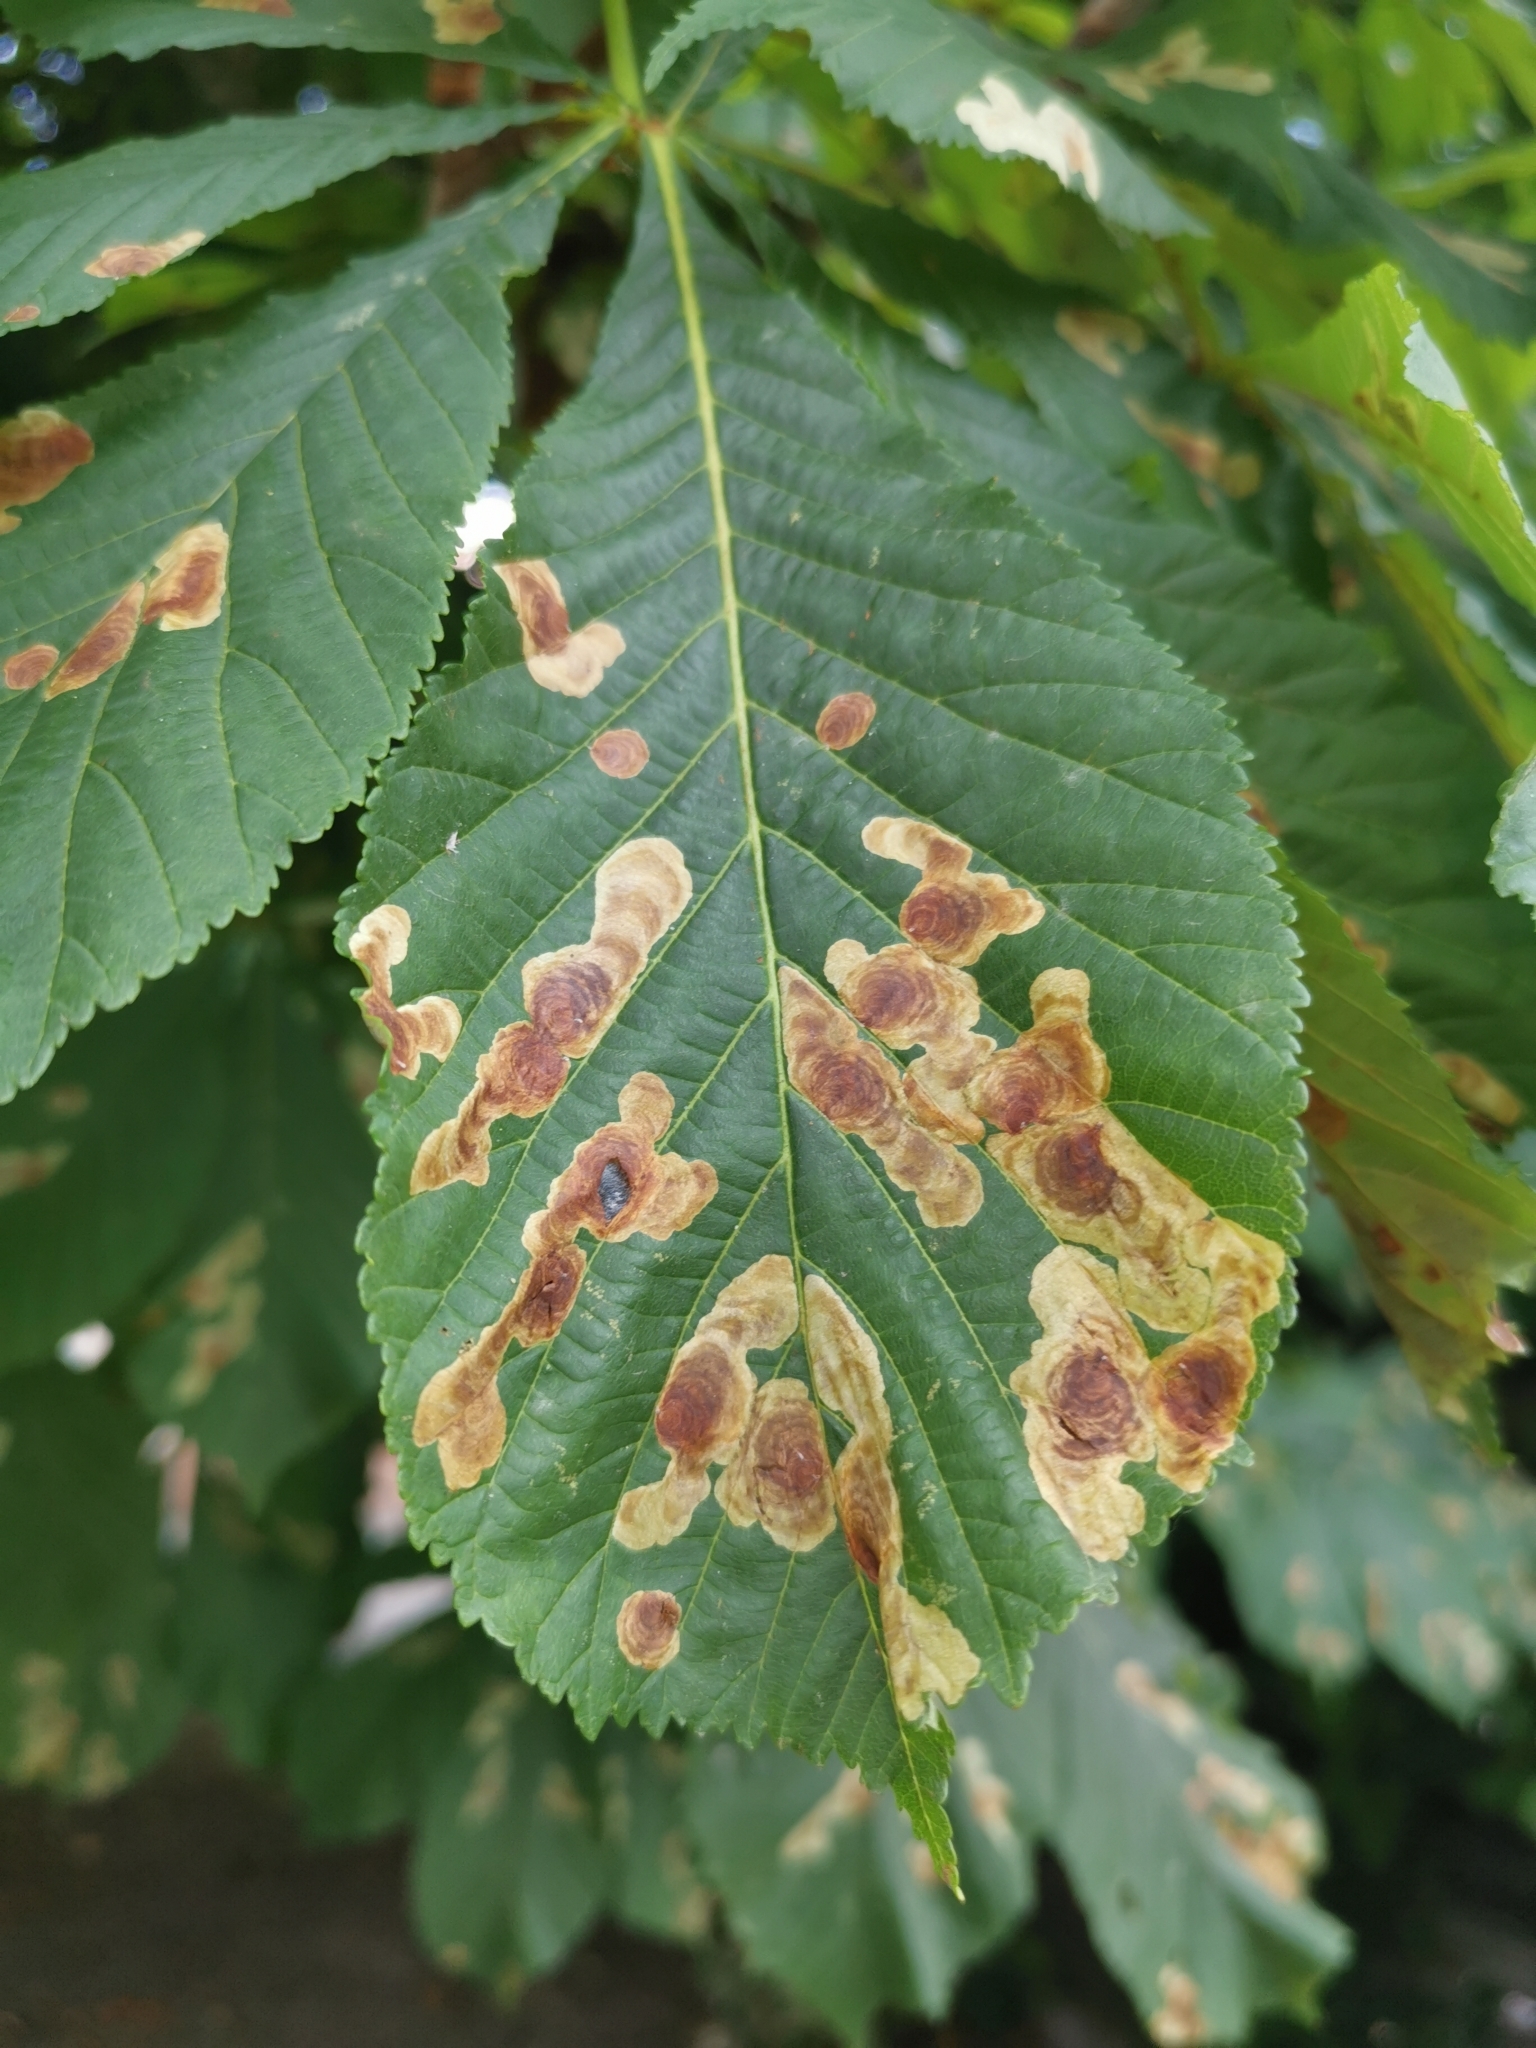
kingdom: Animalia
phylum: Arthropoda
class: Insecta
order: Lepidoptera
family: Gracillariidae
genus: Cameraria
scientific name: Cameraria ohridella
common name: Horse-chestnut leaf-miner
